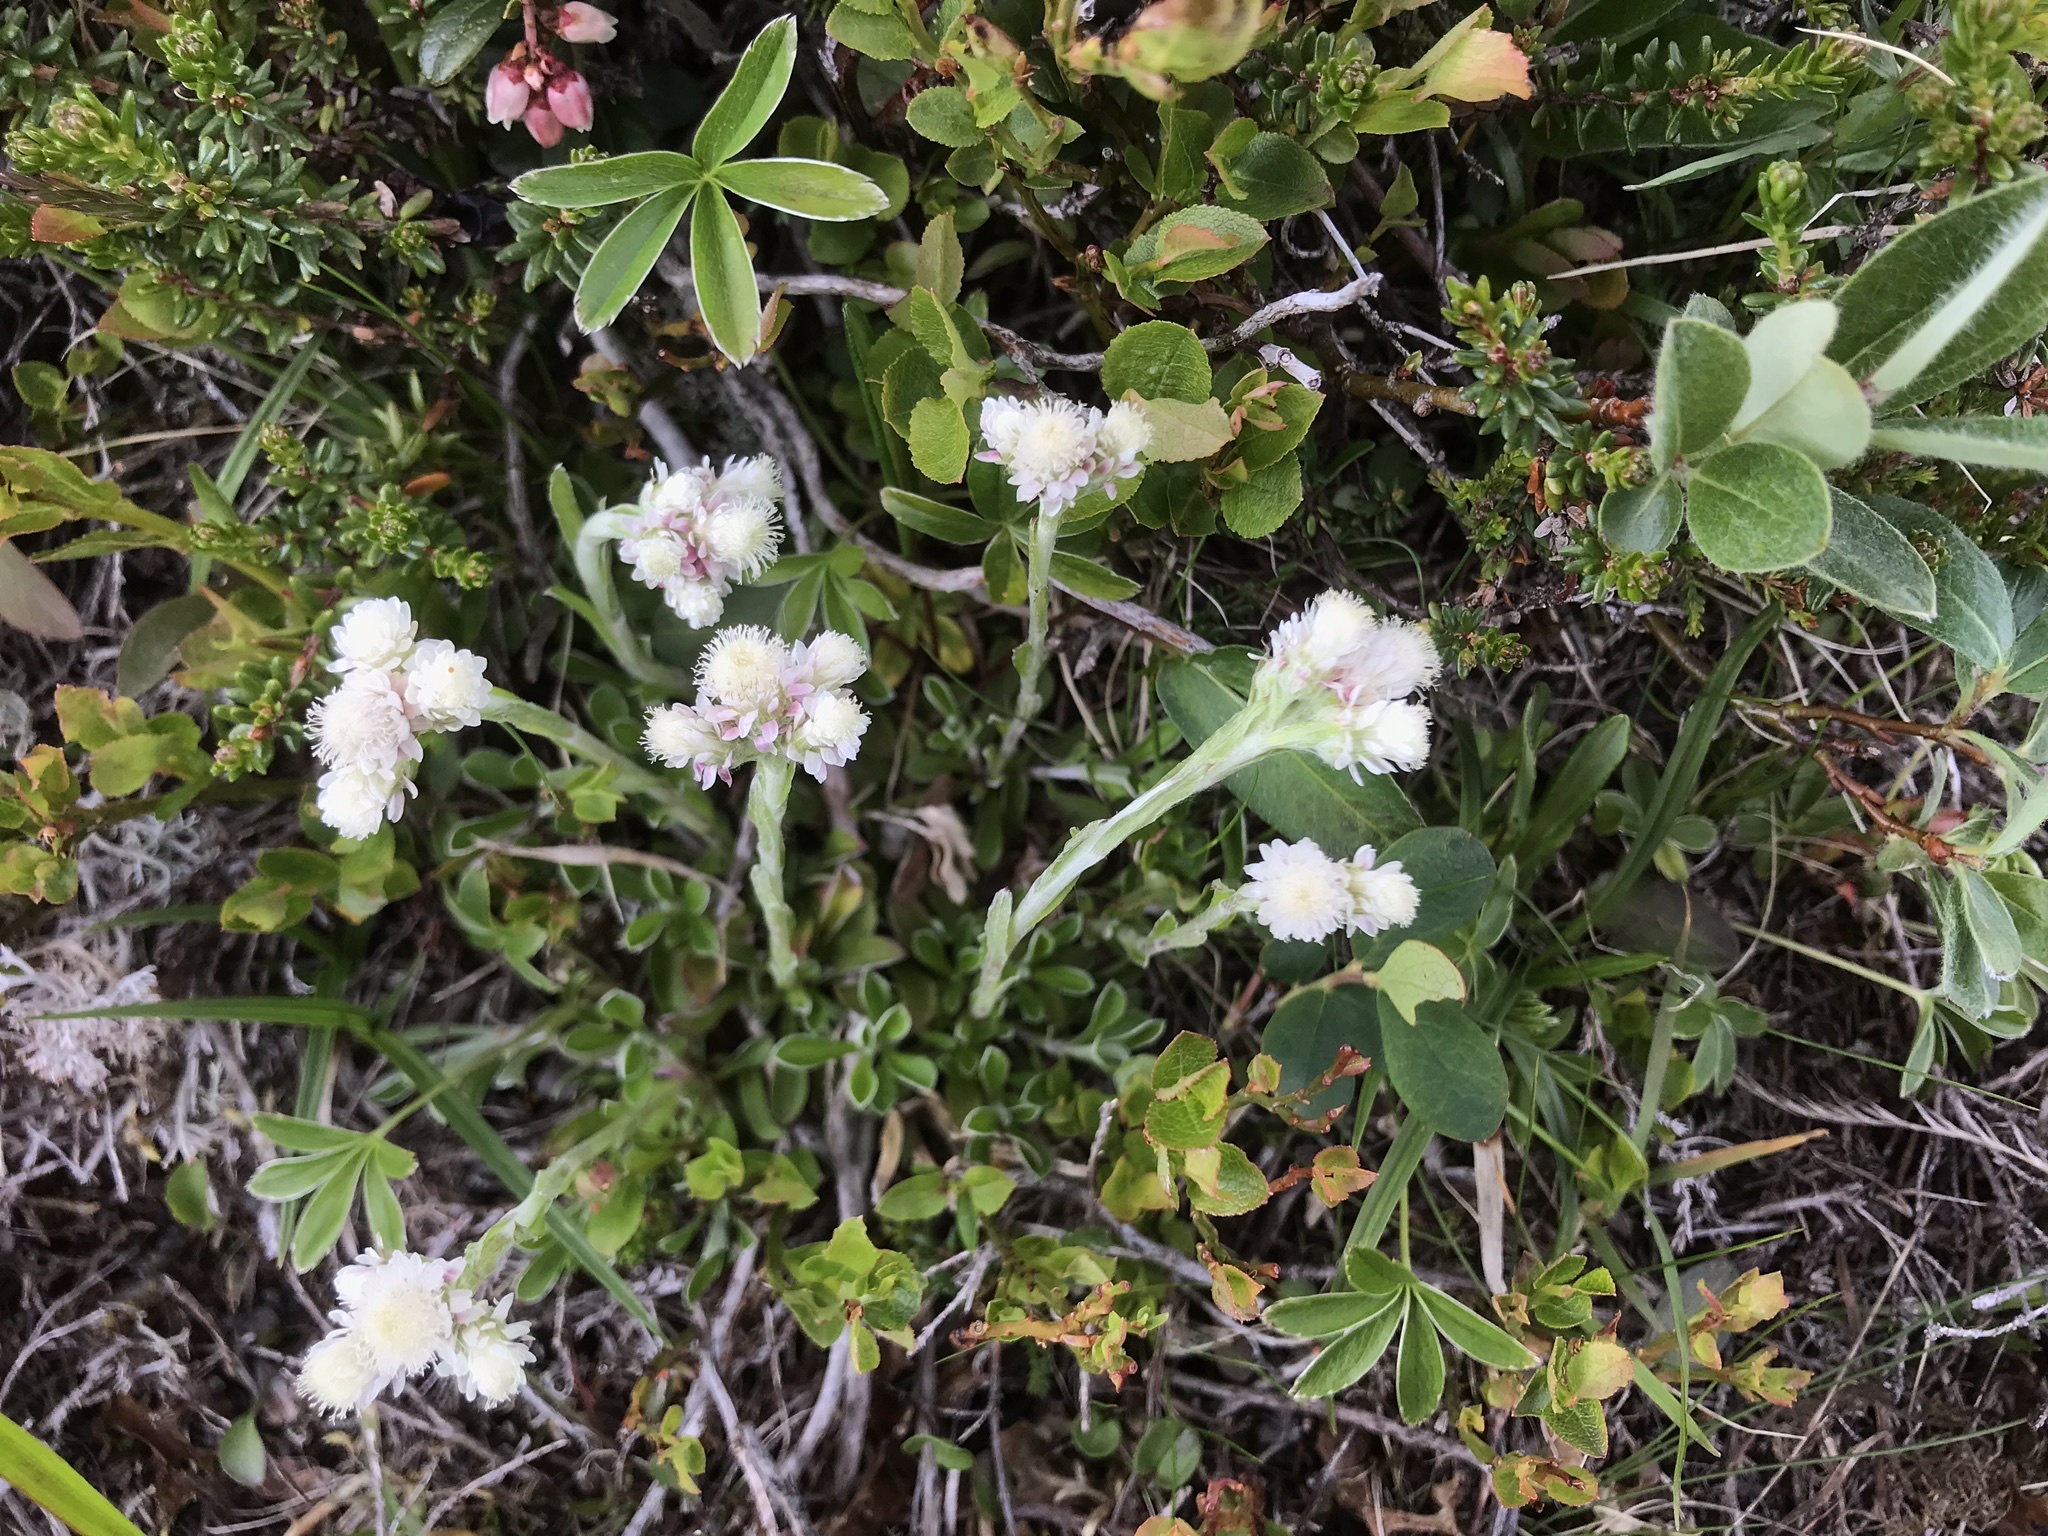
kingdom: Plantae
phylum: Tracheophyta
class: Magnoliopsida
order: Asterales
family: Asteraceae
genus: Antennaria
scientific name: Antennaria dioica
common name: Mountain everlasting
